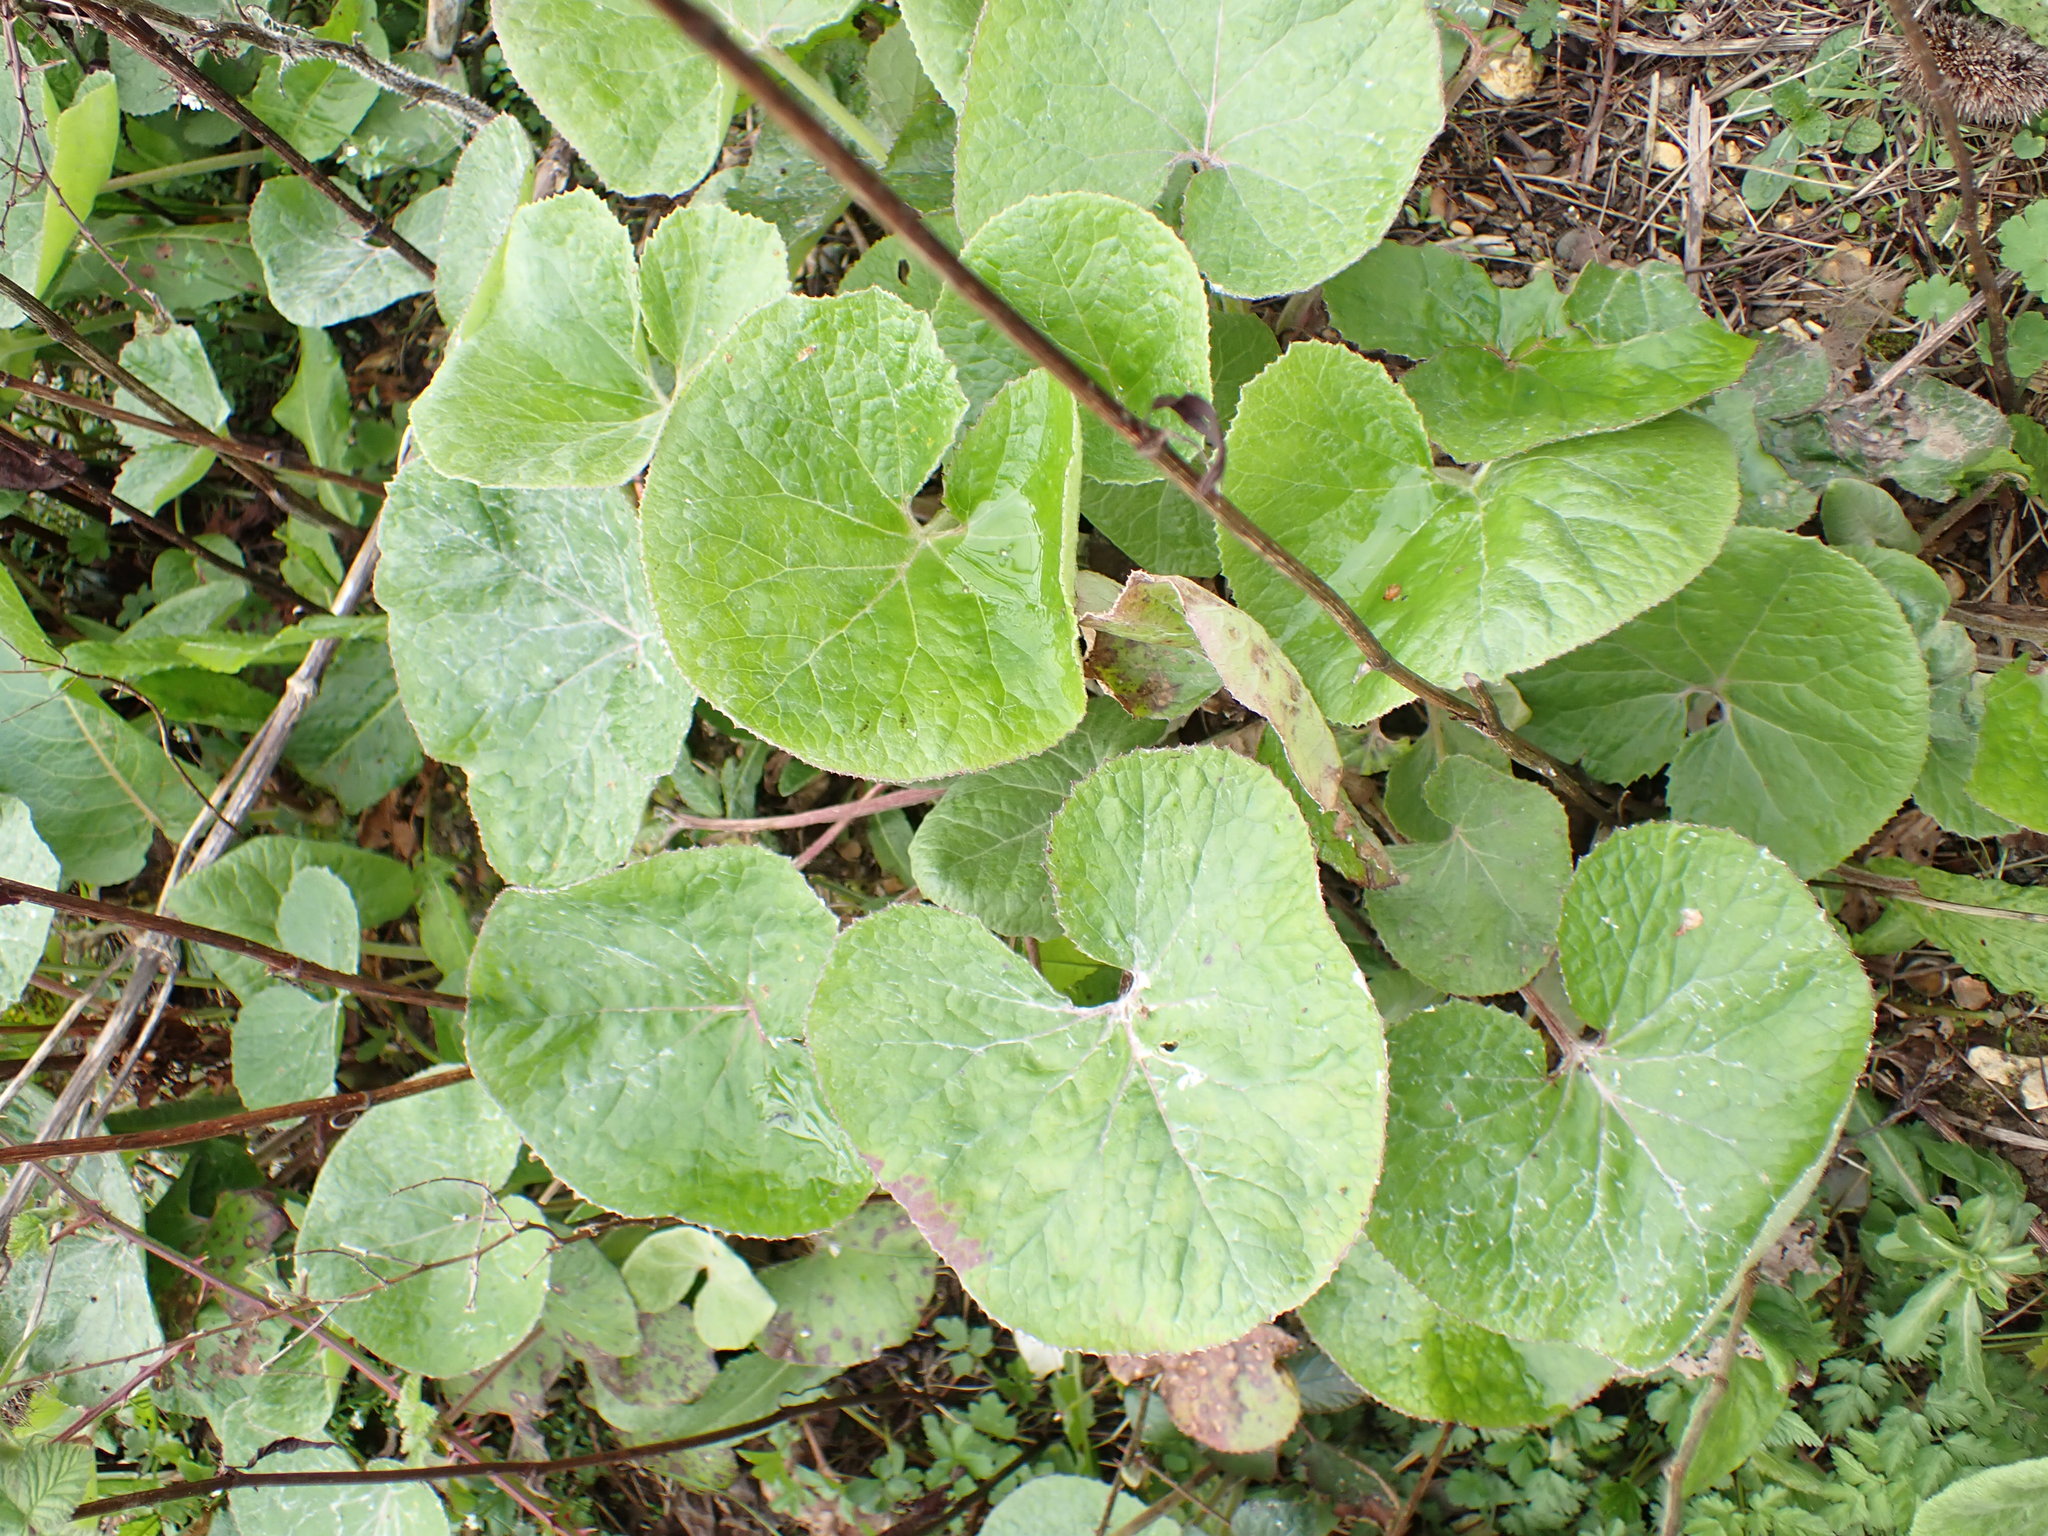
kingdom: Plantae
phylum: Tracheophyta
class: Magnoliopsida
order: Asterales
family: Asteraceae
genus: Petasites
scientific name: Petasites pyrenaicus
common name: Winter heliotrope
